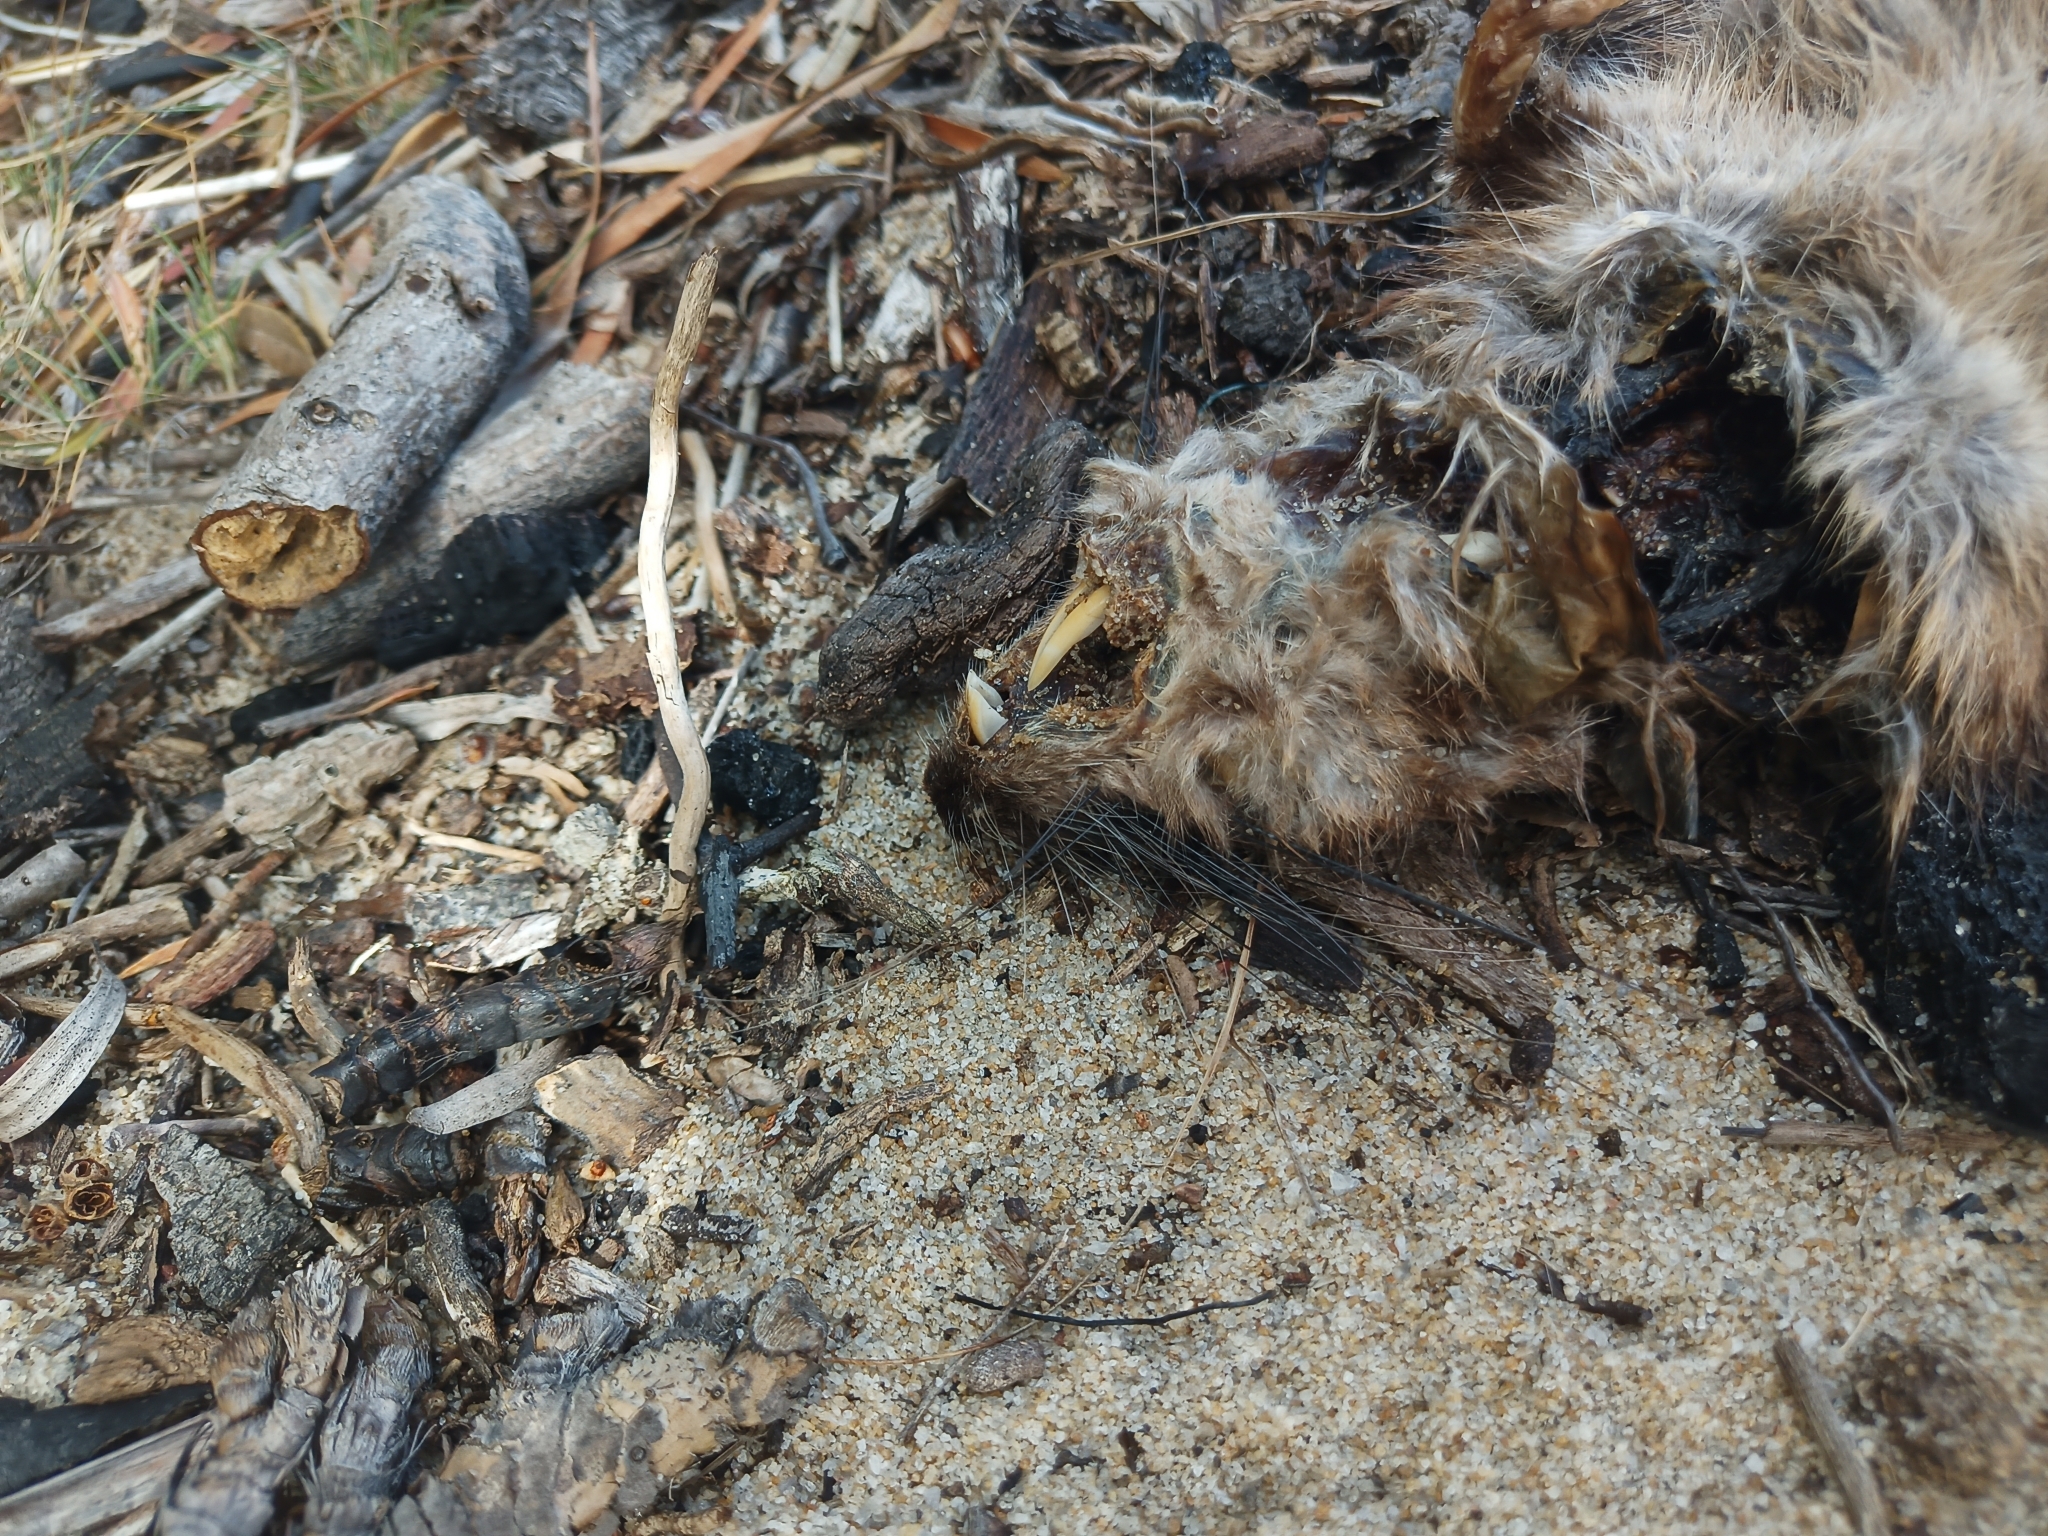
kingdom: Animalia
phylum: Chordata
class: Mammalia
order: Rodentia
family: Muridae
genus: Hydromys
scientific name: Hydromys chrysogaster
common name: Common water rat
